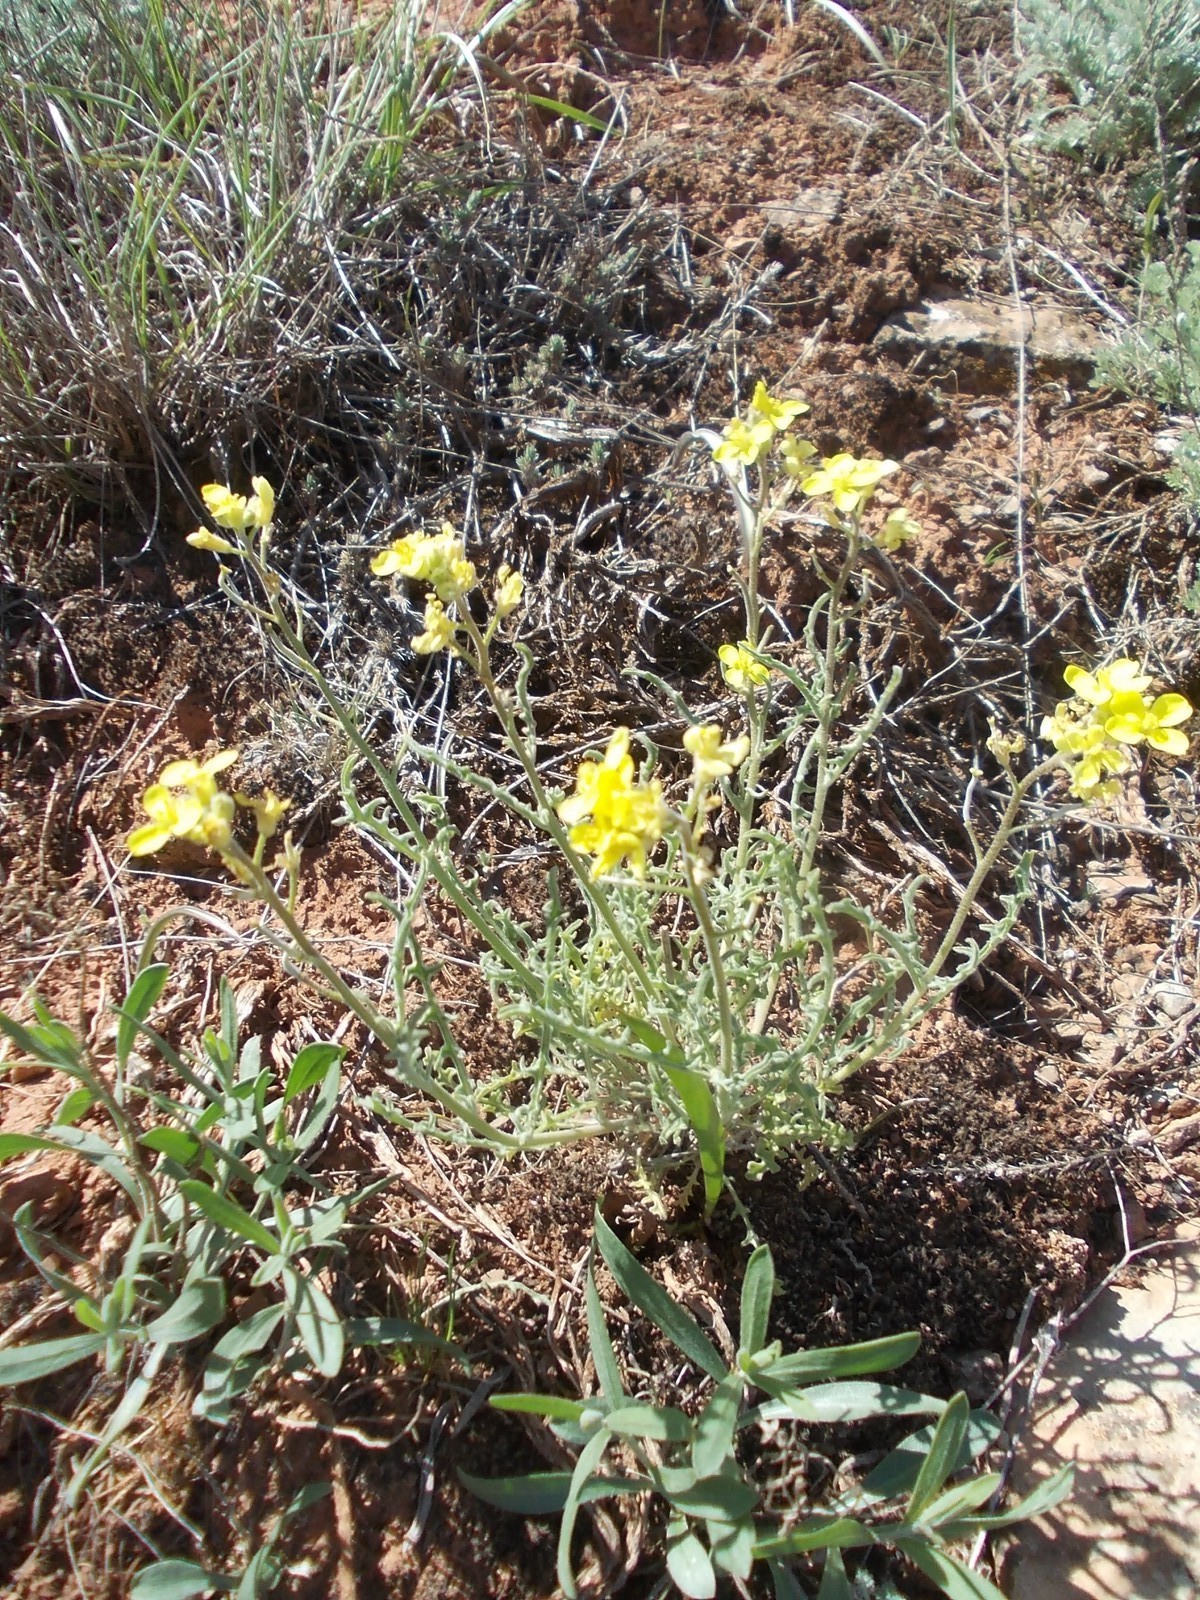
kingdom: Plantae
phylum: Tracheophyta
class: Magnoliopsida
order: Brassicales
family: Brassicaceae
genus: Sterigmostemum
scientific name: Sterigmostemum caspicum
